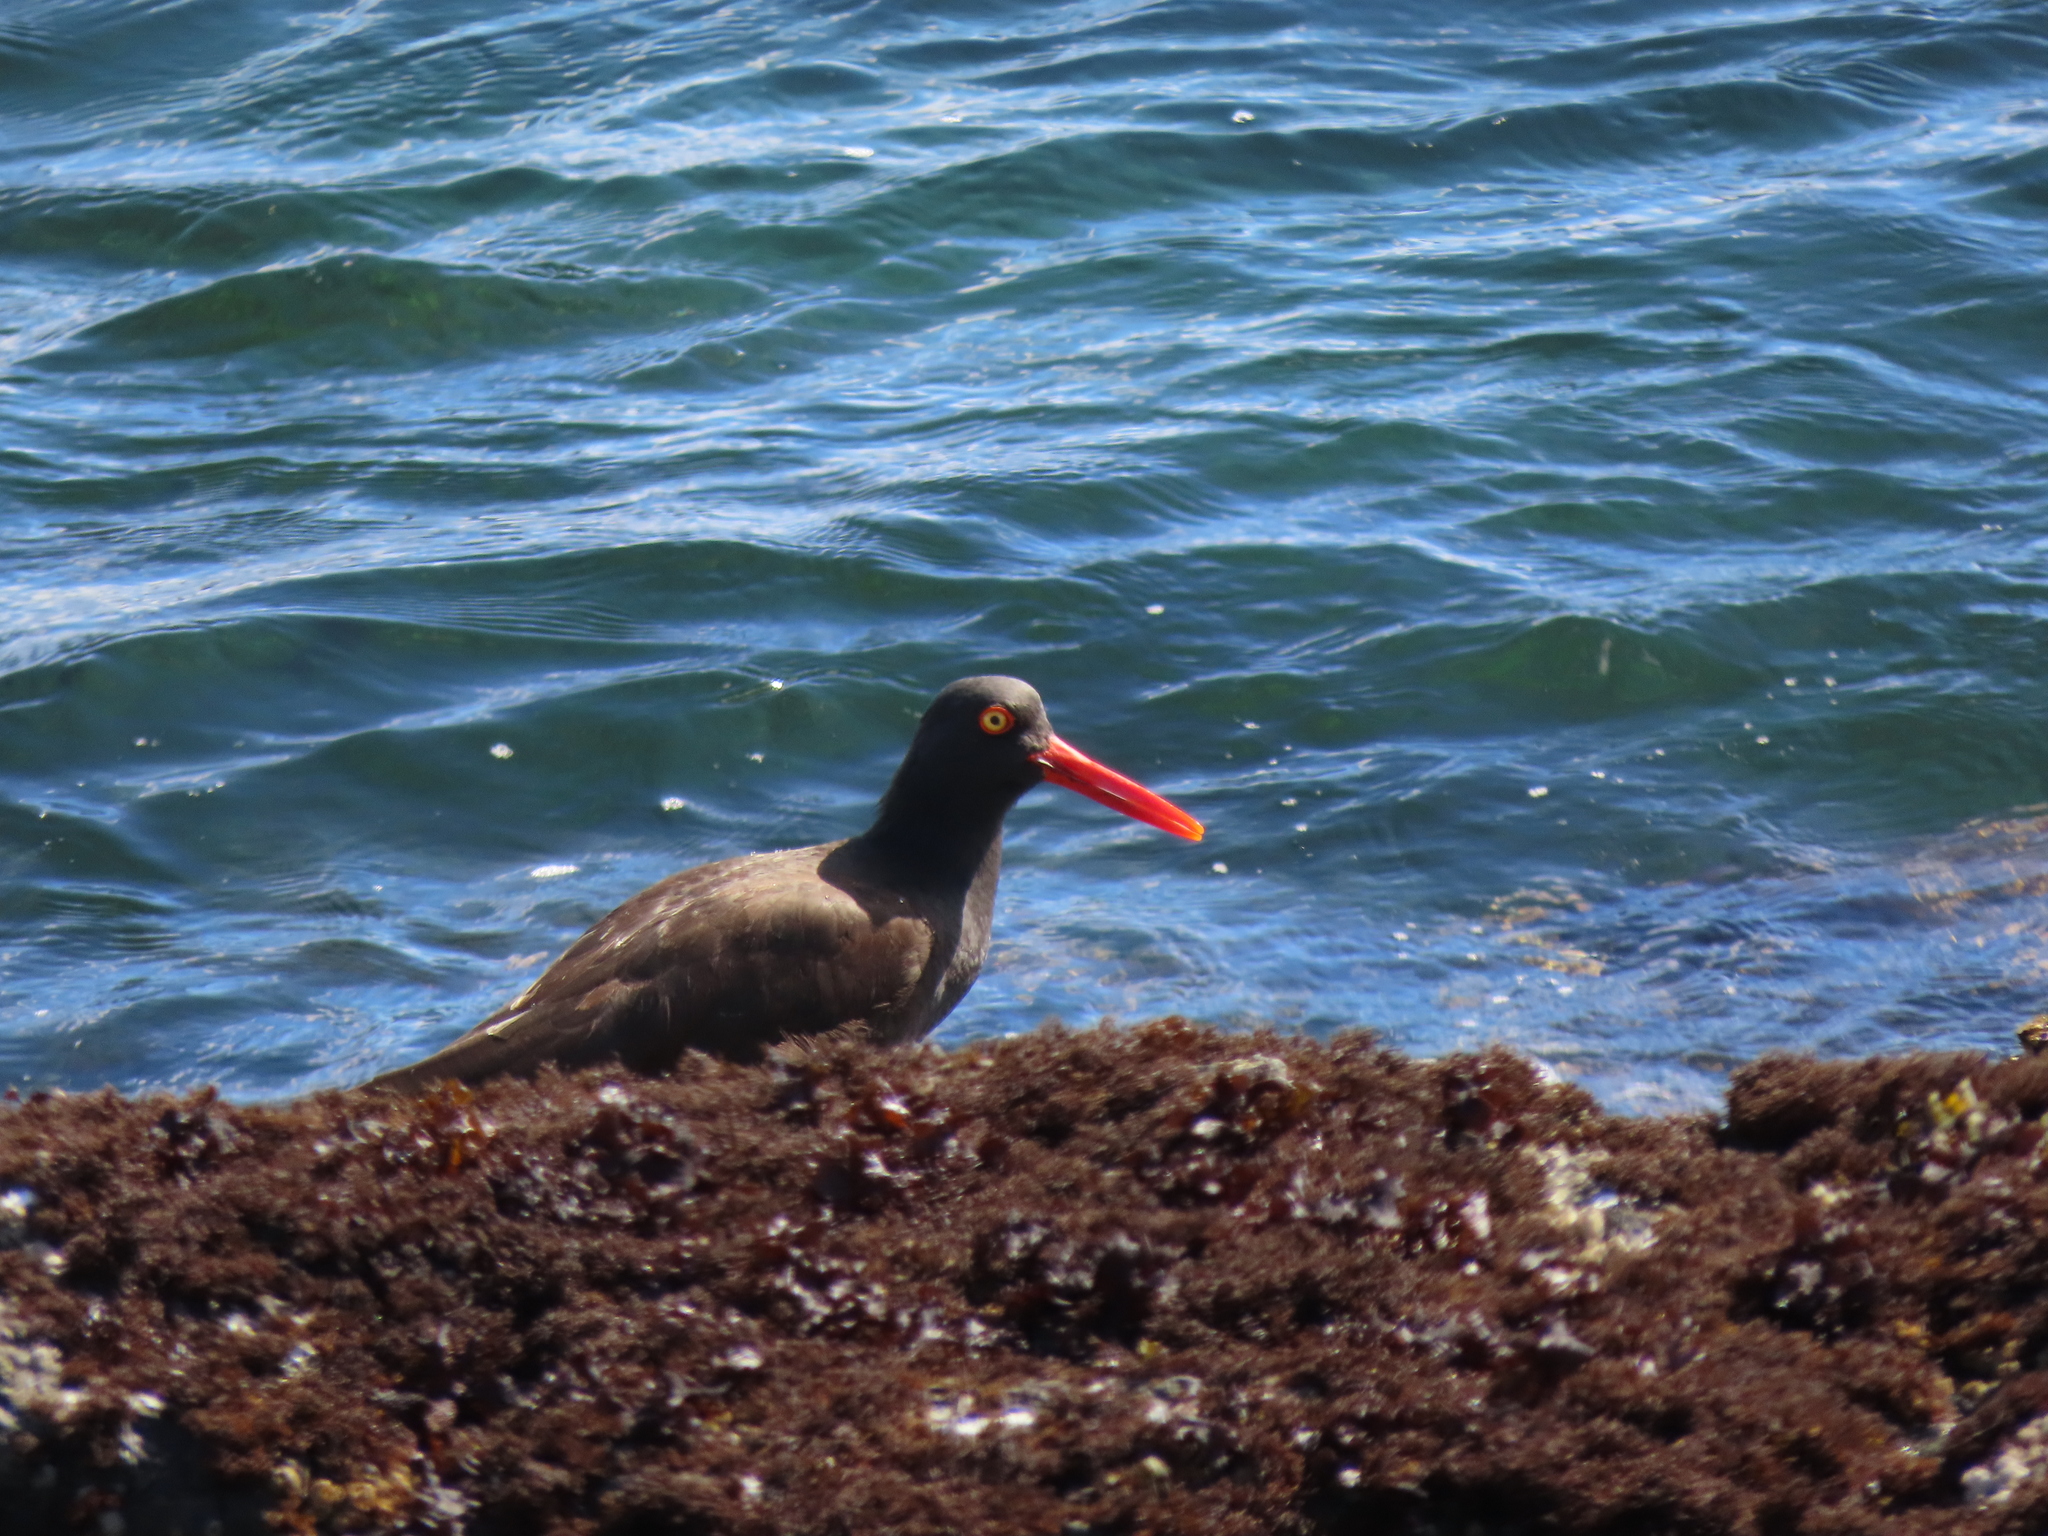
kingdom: Animalia
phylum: Chordata
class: Aves
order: Charadriiformes
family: Haematopodidae
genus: Haematopus
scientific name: Haematopus bachmani
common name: Black oystercatcher
